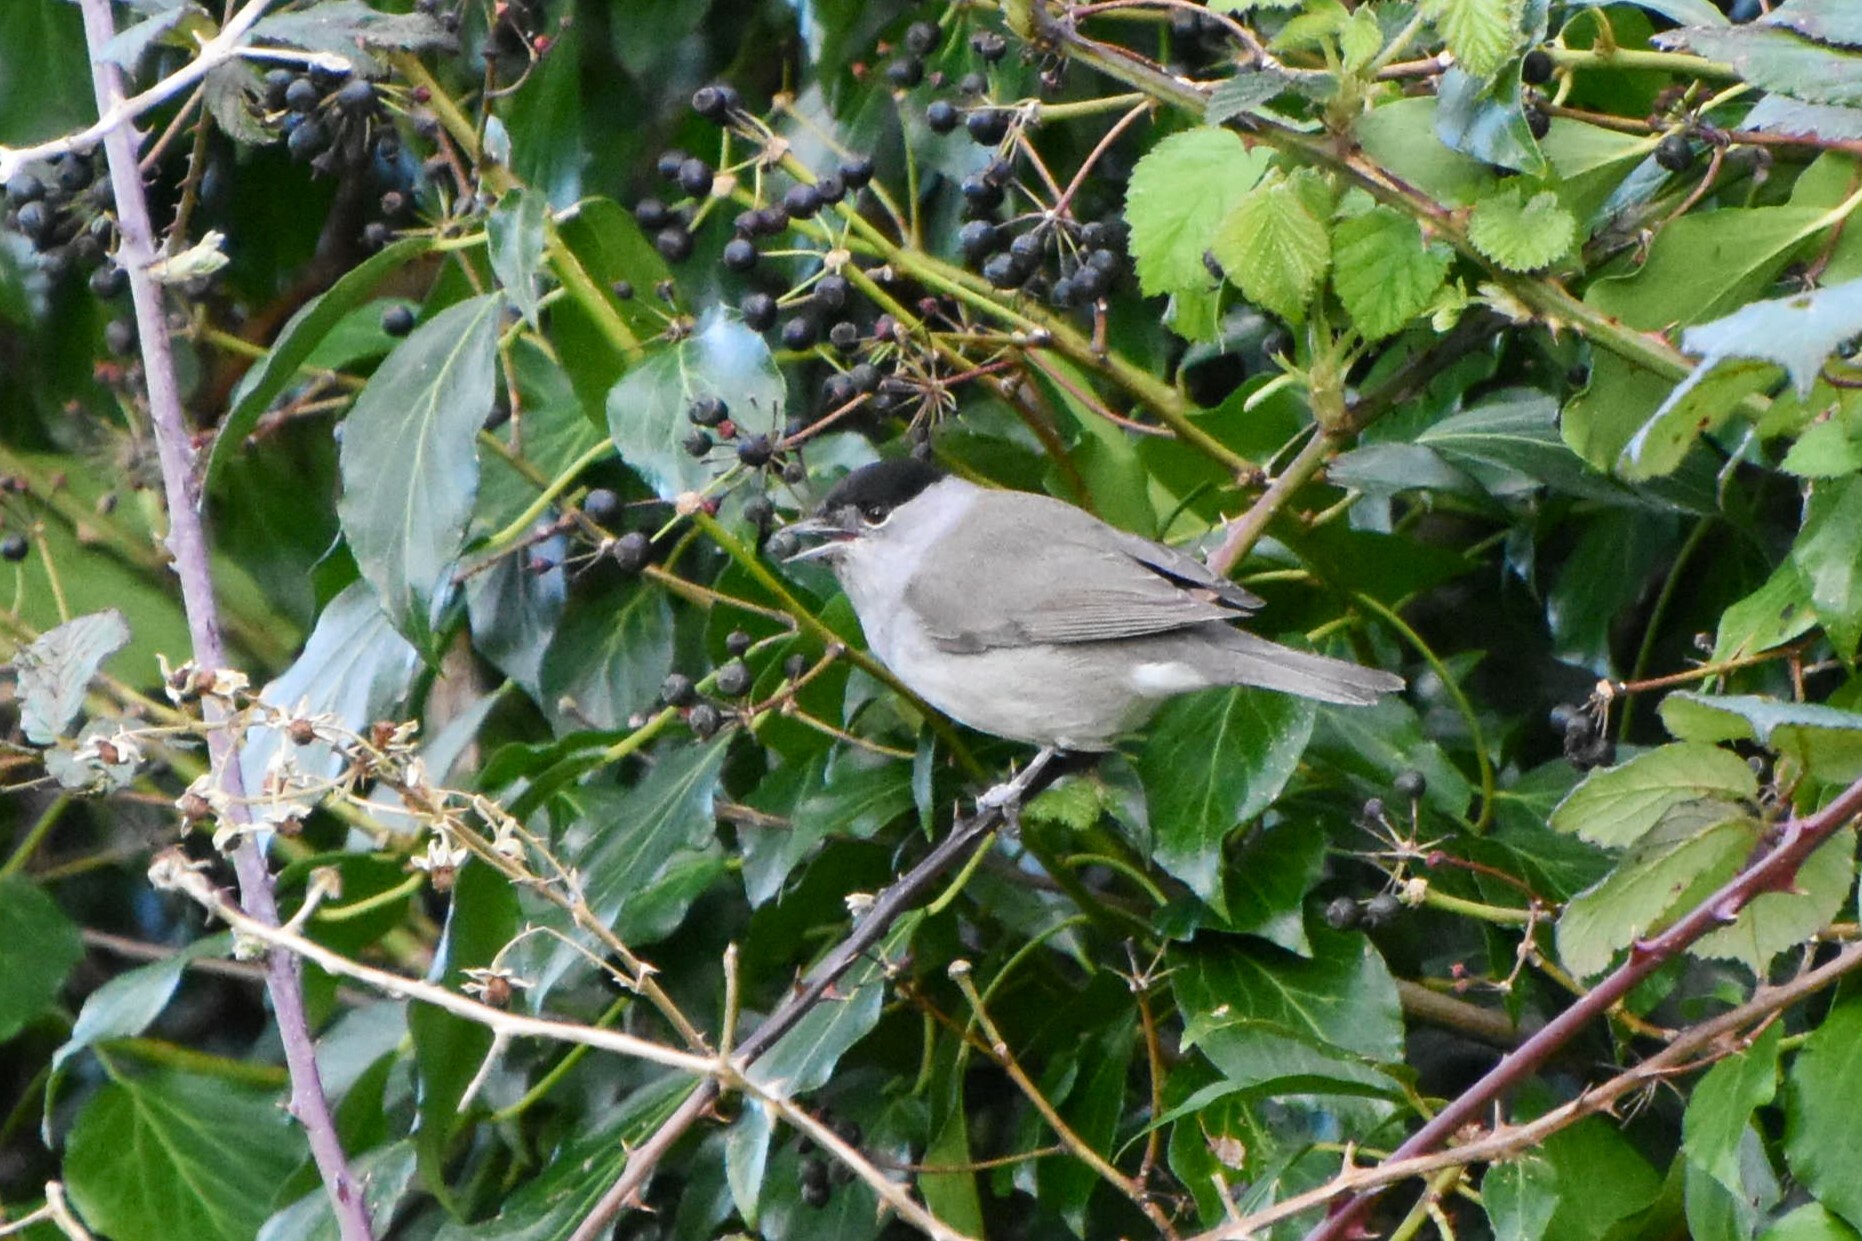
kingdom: Animalia
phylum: Chordata
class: Aves
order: Passeriformes
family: Sylviidae
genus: Sylvia
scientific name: Sylvia atricapilla
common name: Eurasian blackcap
